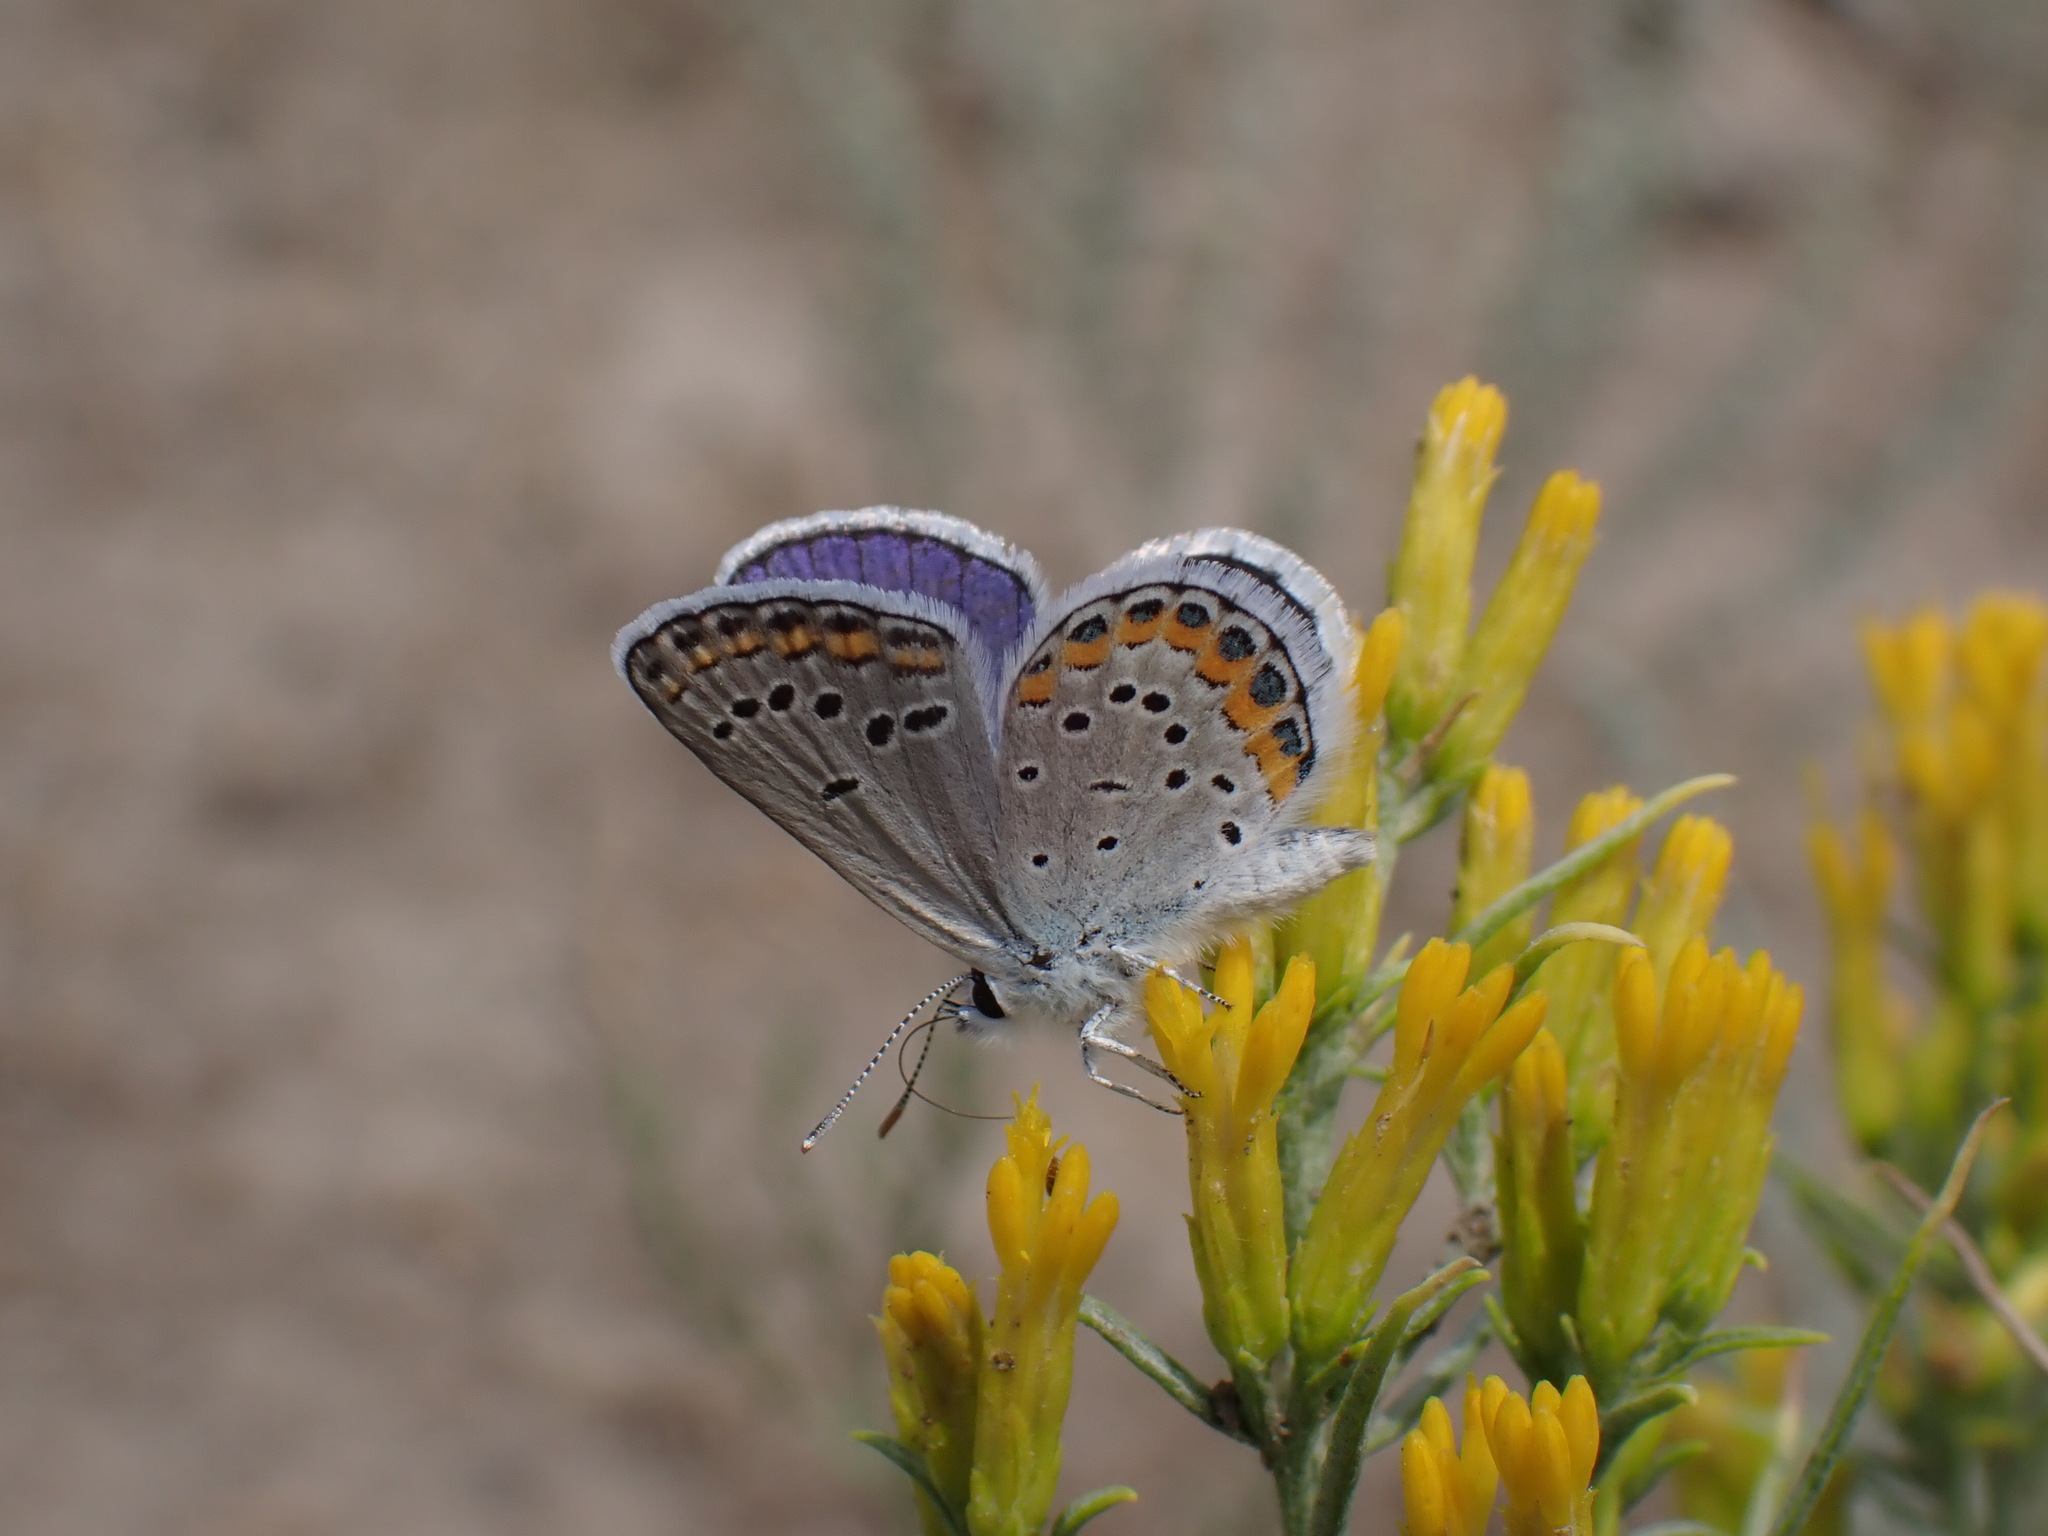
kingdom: Animalia
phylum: Arthropoda
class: Insecta
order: Lepidoptera
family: Lycaenidae
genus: Lycaeides
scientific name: Lycaeides melissa
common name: Melissa blue
